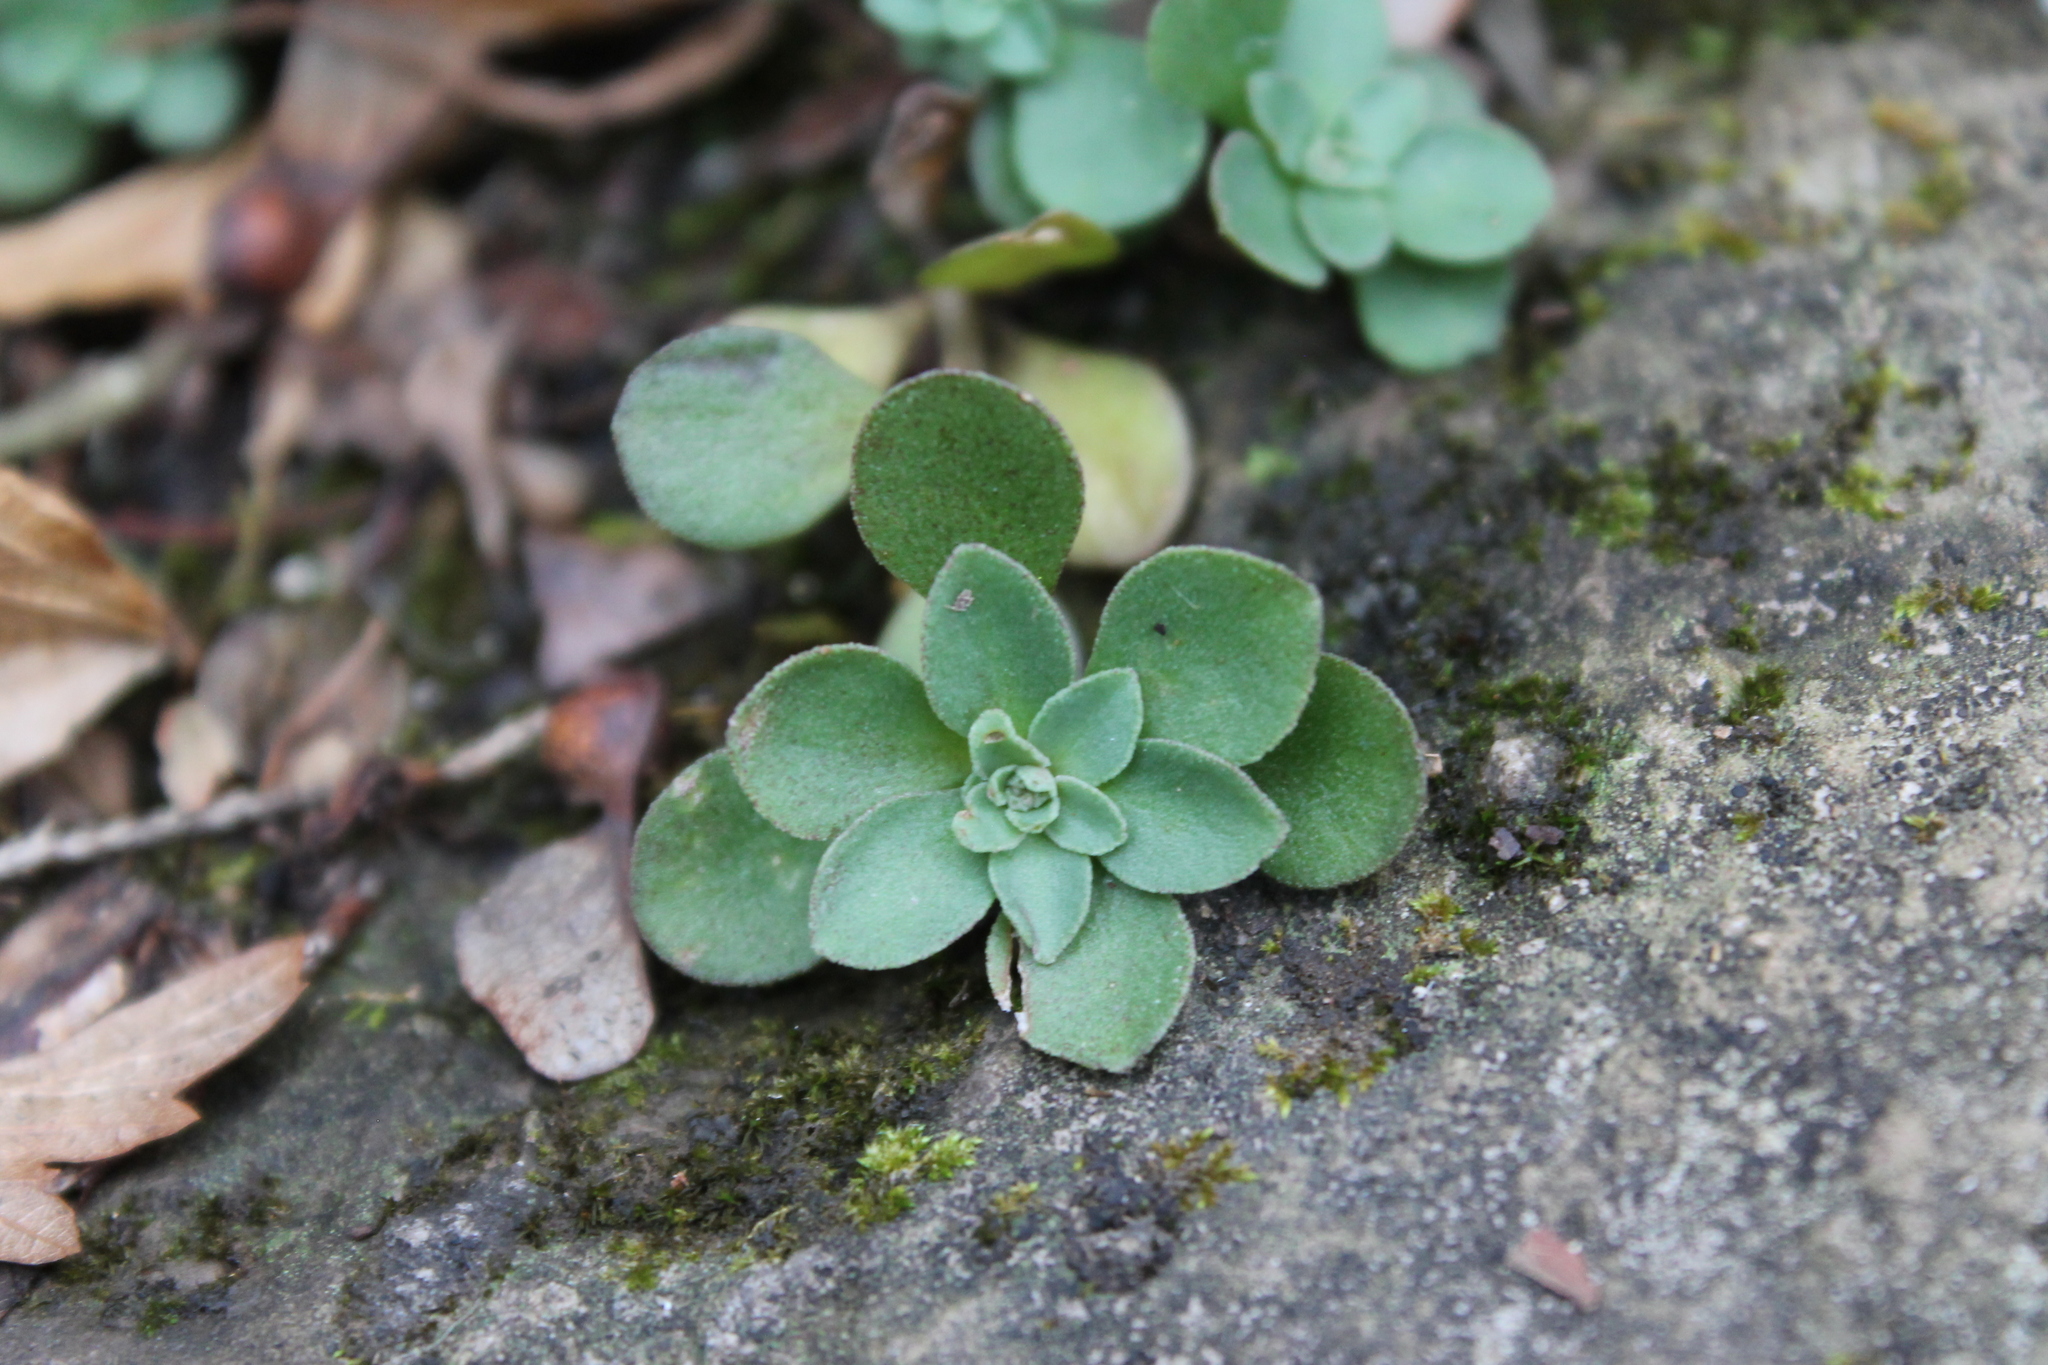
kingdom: Plantae
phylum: Tracheophyta
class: Magnoliopsida
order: Saxifragales
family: Crassulaceae
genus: Sedum
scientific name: Sedum ternatum
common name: Wild stonecrop
